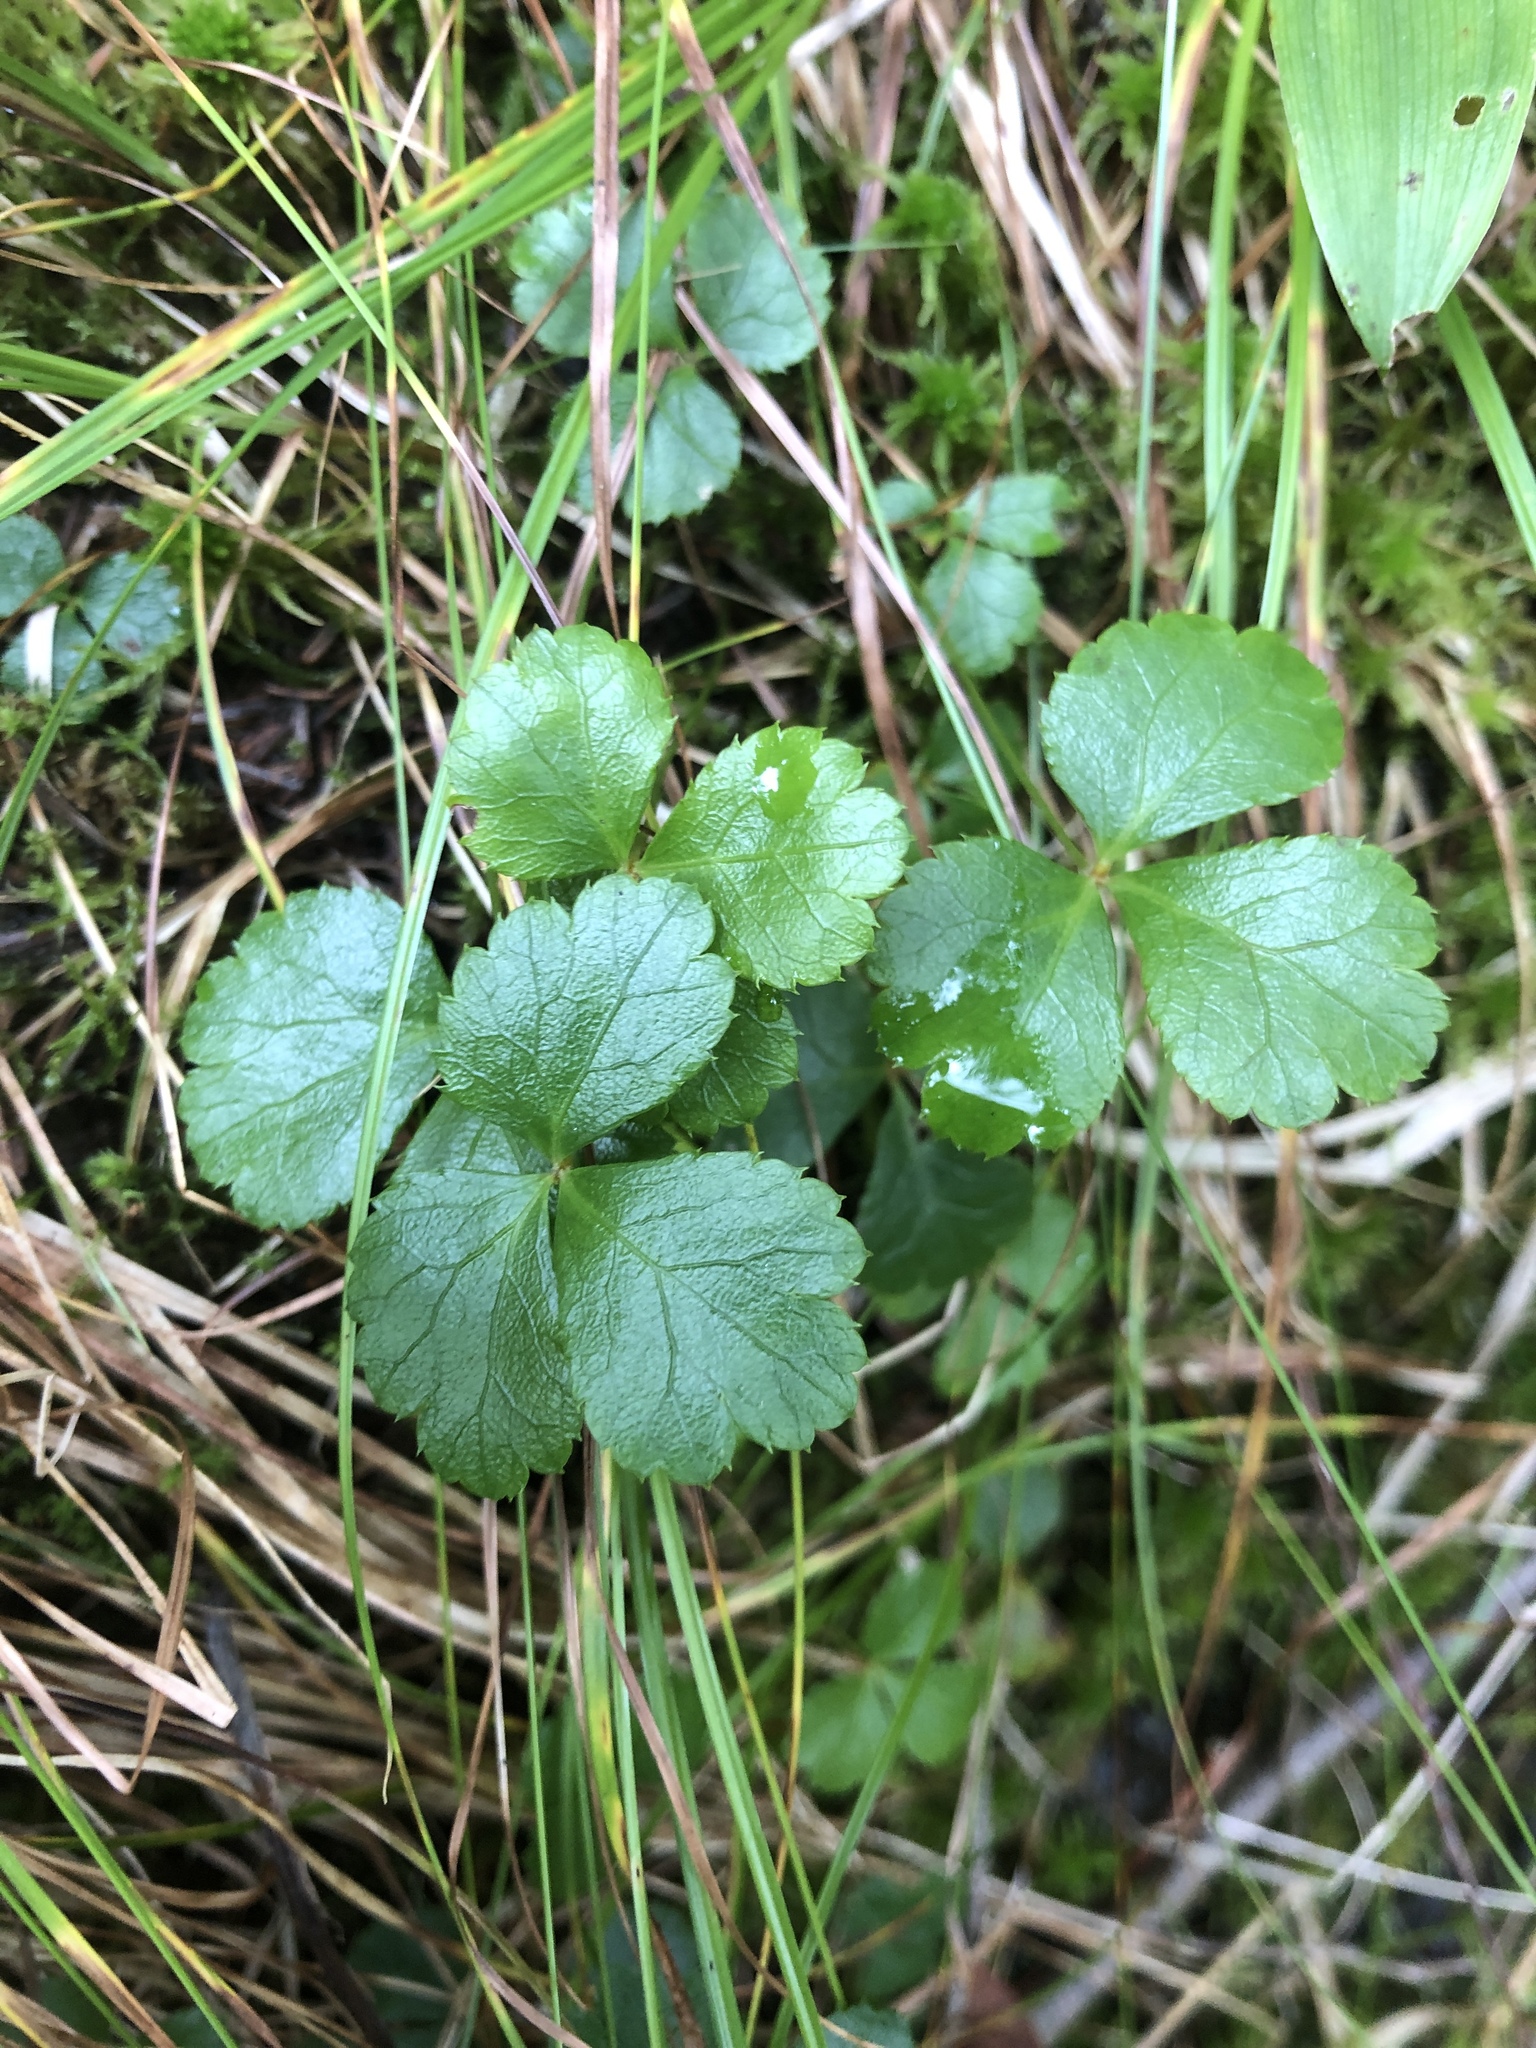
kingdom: Plantae
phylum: Tracheophyta
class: Magnoliopsida
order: Ranunculales
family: Ranunculaceae
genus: Coptis
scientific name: Coptis trifolia
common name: Canker-root
